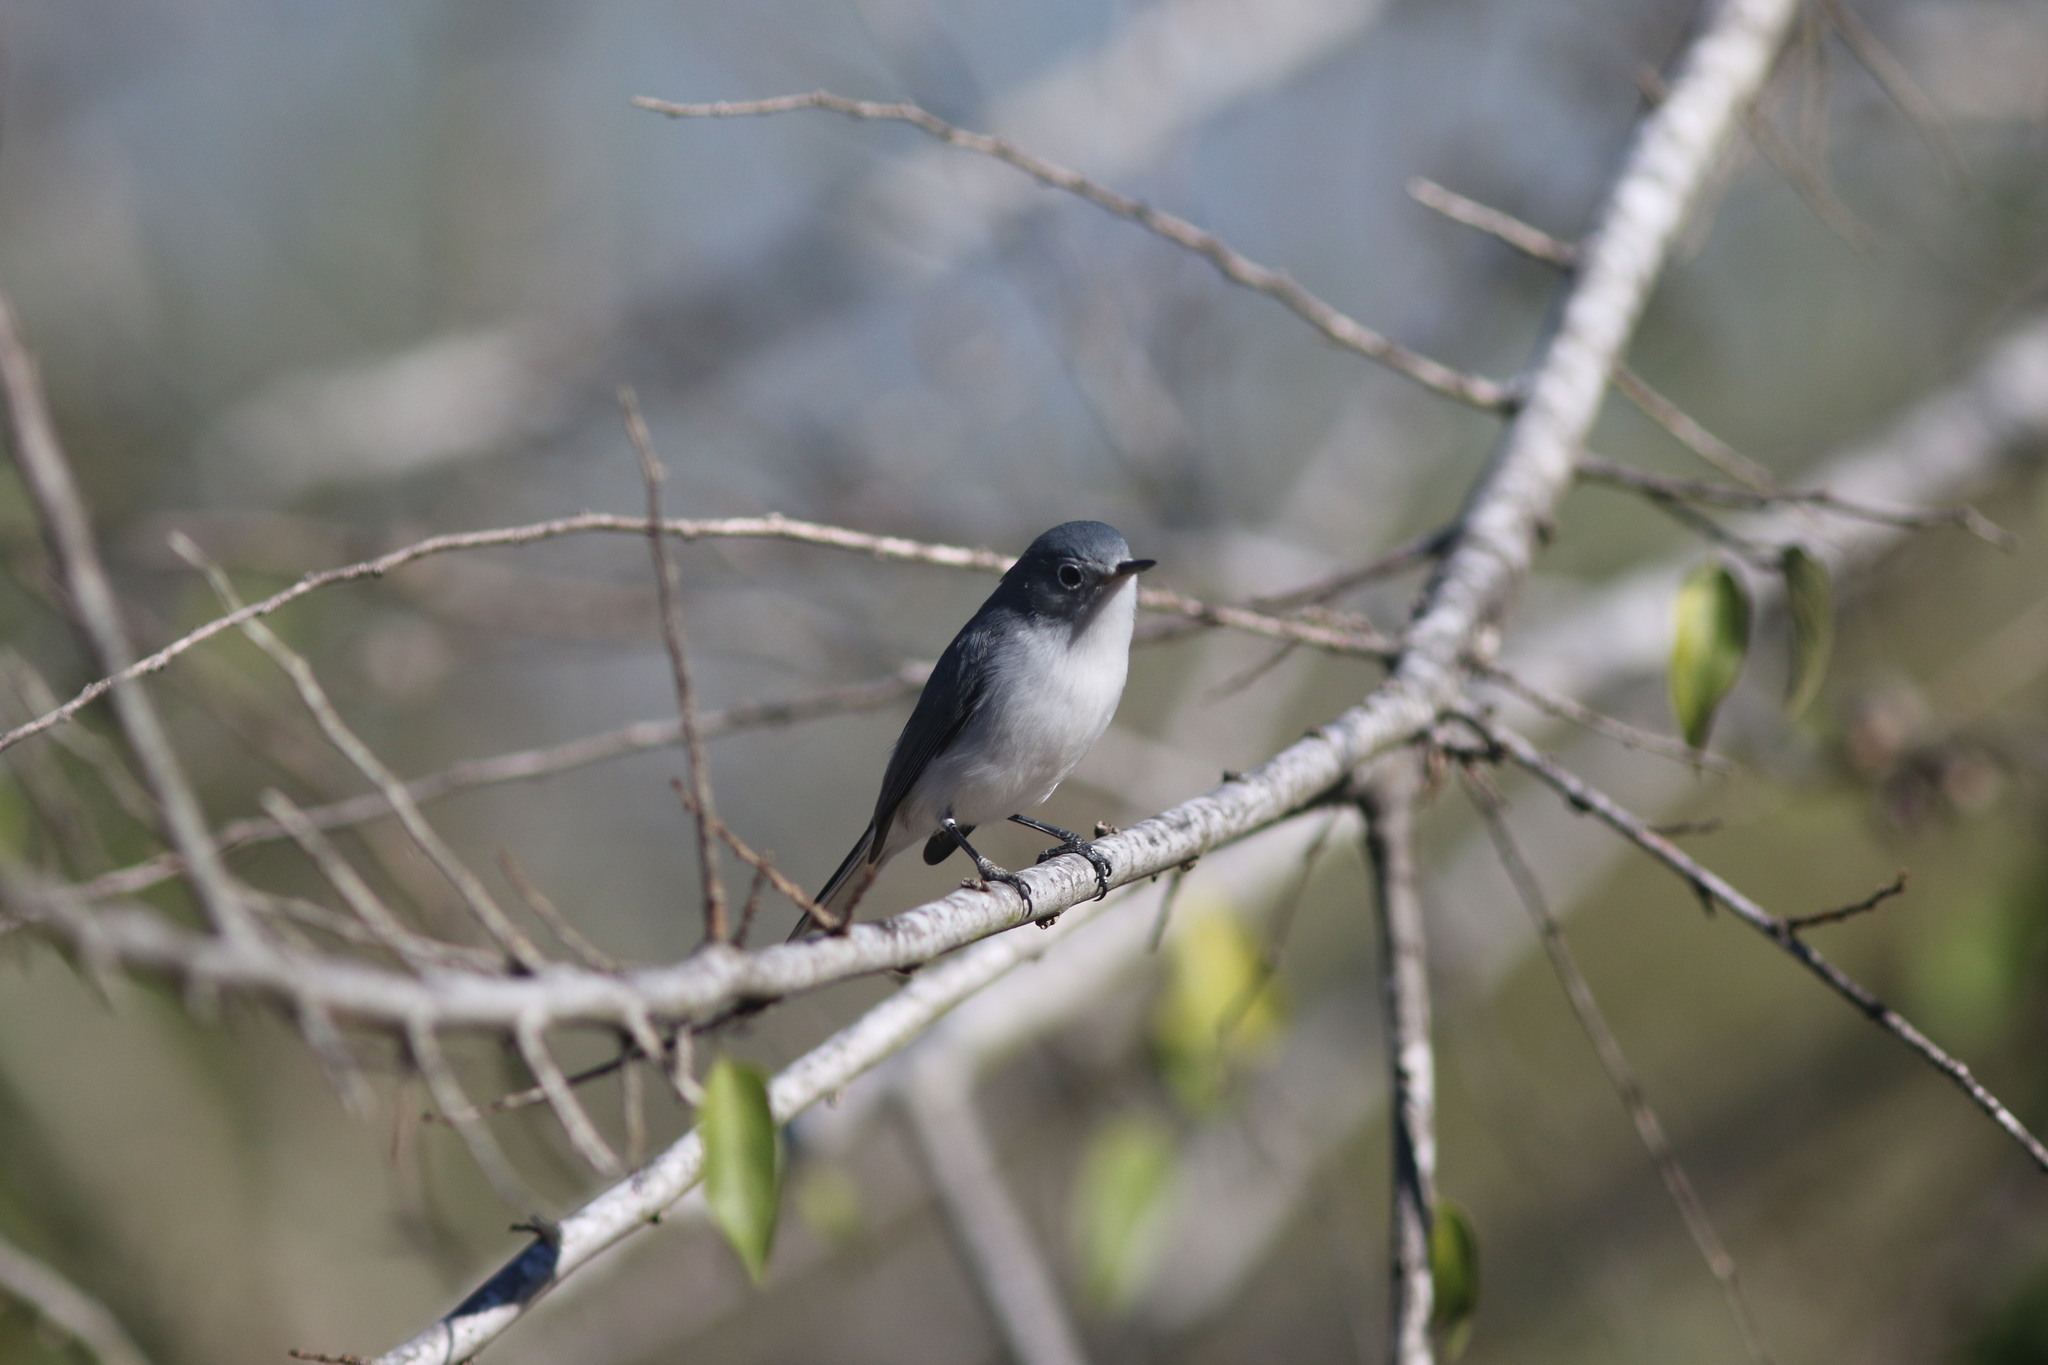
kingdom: Animalia
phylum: Chordata
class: Aves
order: Passeriformes
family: Polioptilidae
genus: Polioptila
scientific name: Polioptila caerulea
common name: Blue-gray gnatcatcher
